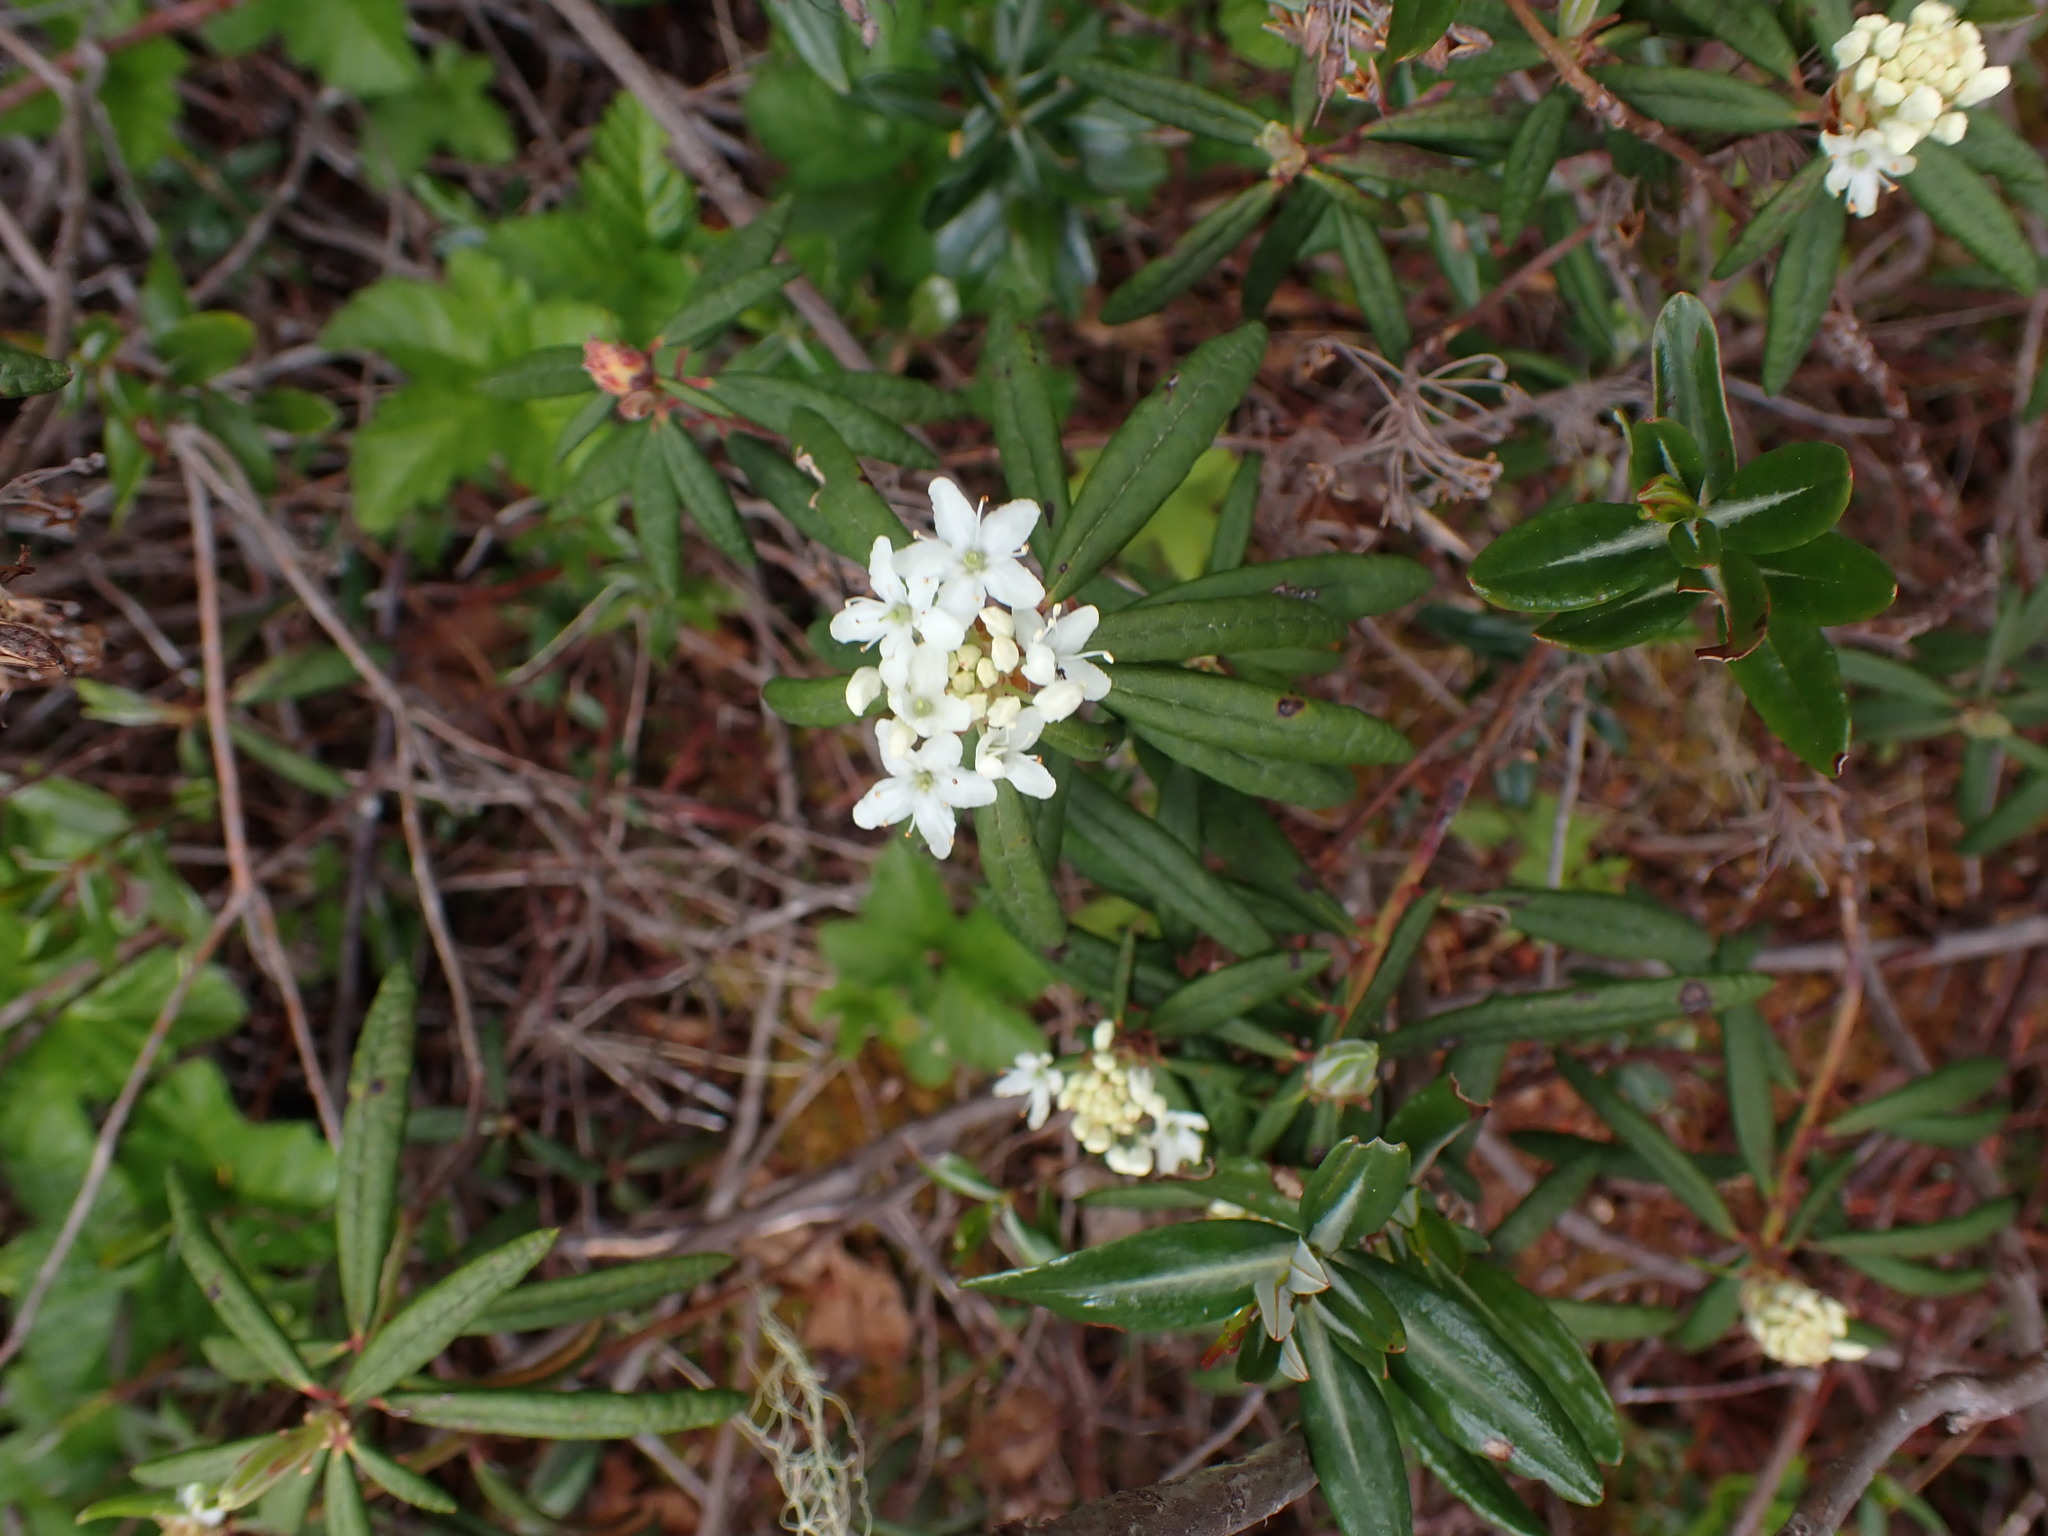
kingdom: Plantae
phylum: Tracheophyta
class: Magnoliopsida
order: Ericales
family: Ericaceae
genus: Rhododendron
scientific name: Rhododendron groenlandicum
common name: Bog labrador tea
